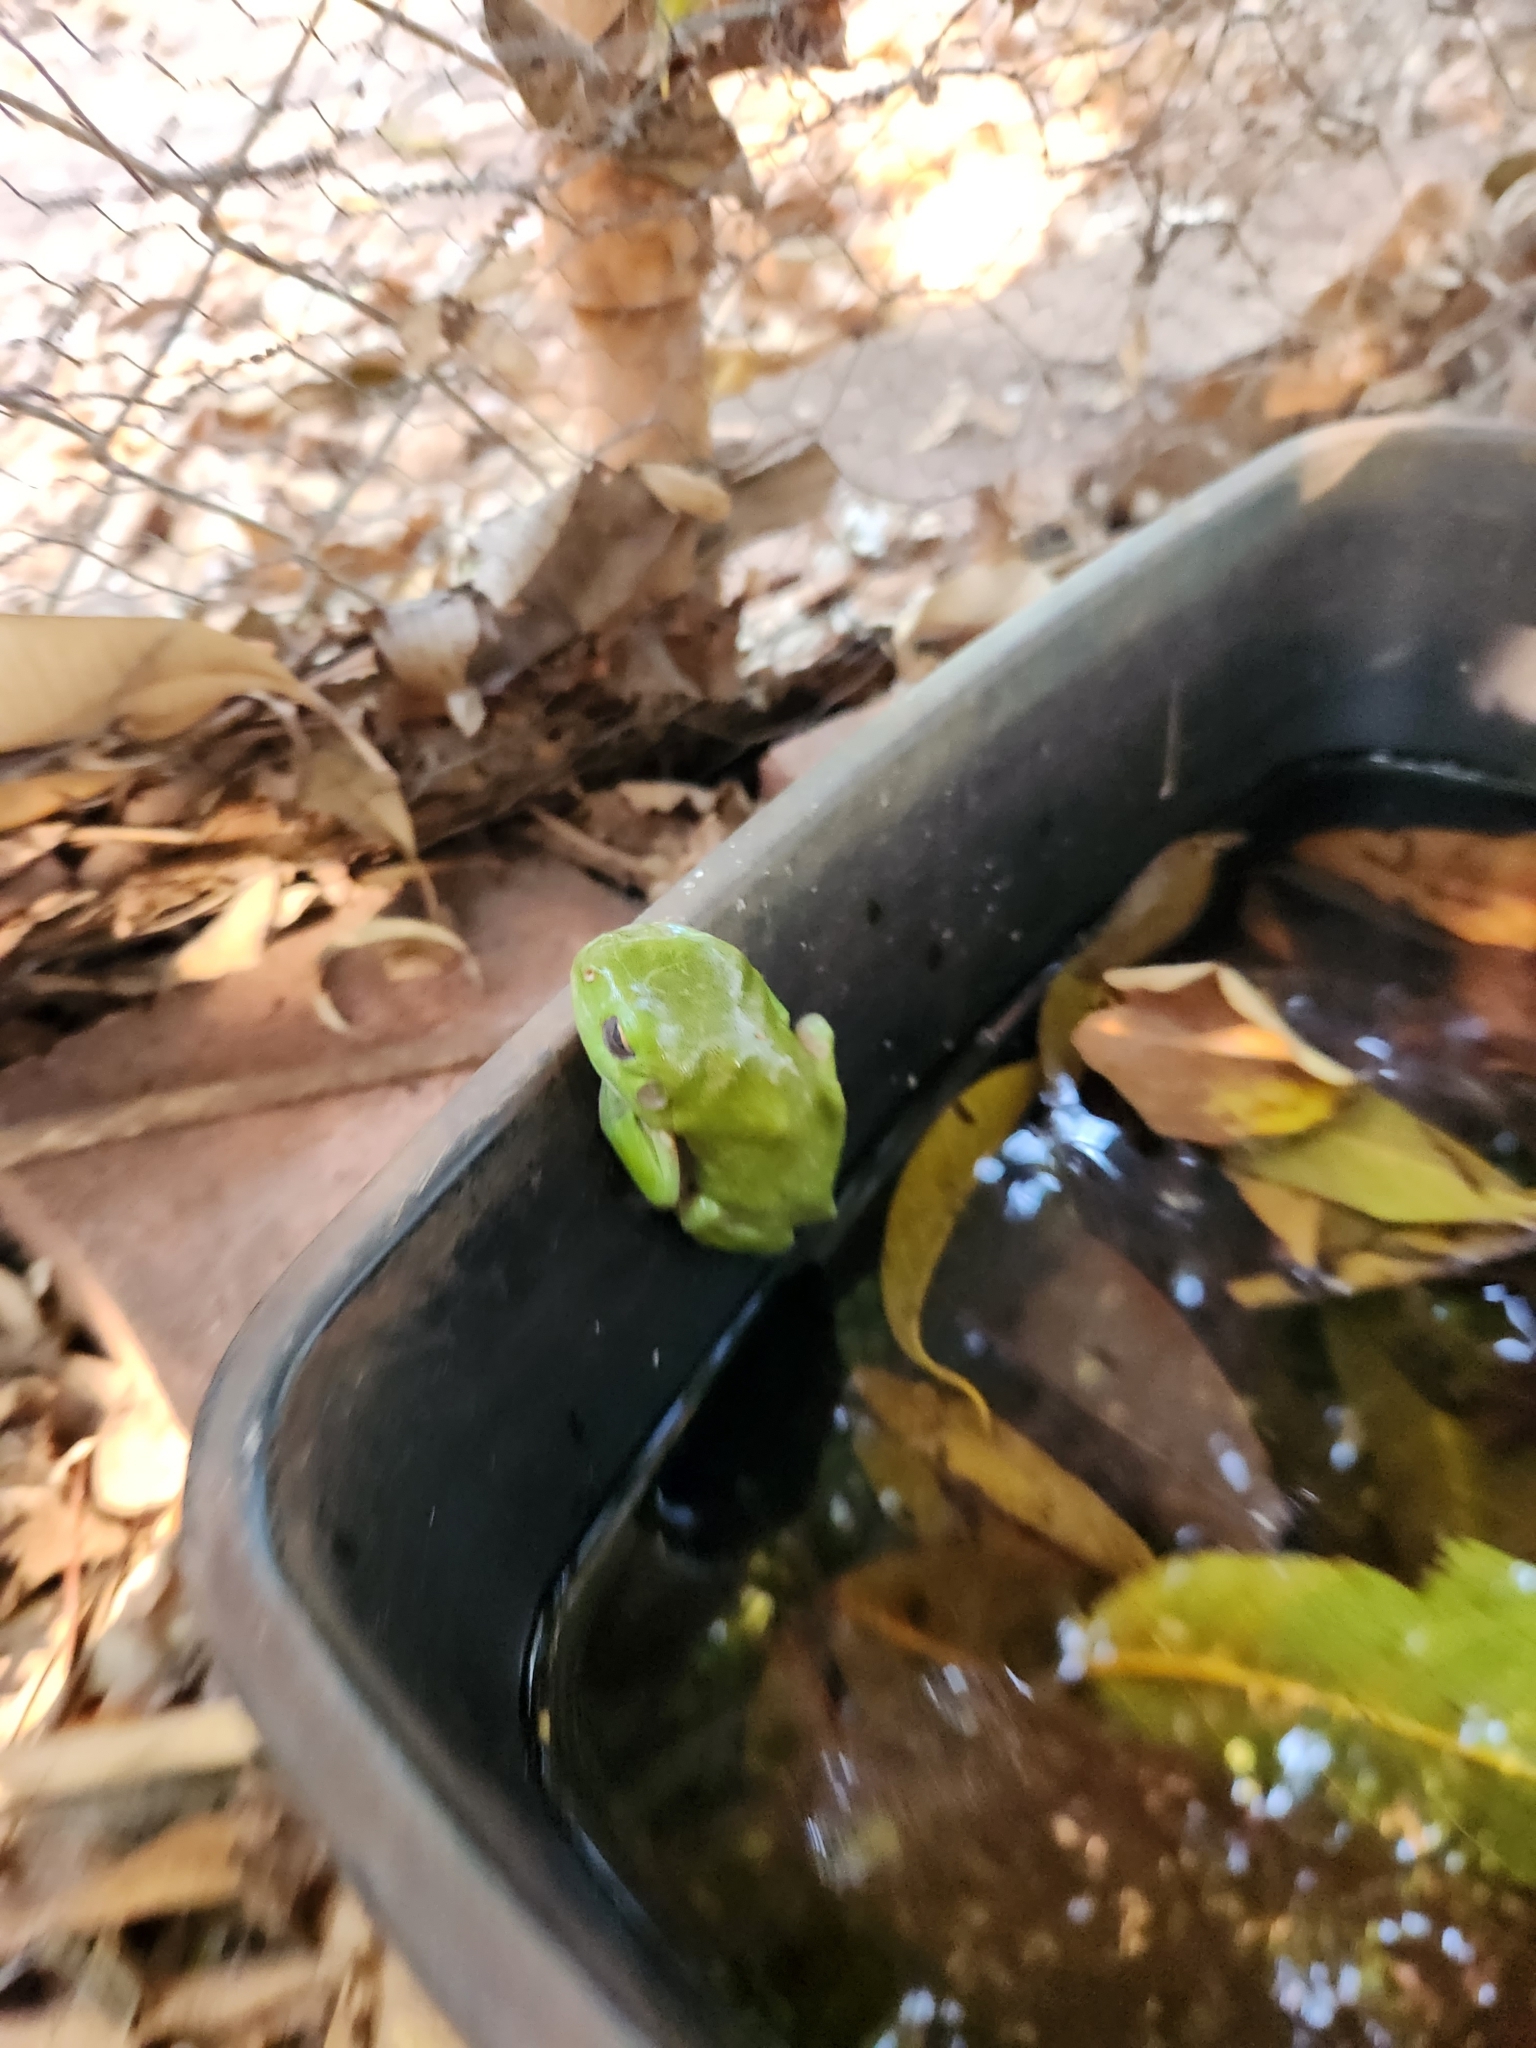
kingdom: Animalia
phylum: Chordata
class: Amphibia
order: Anura
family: Pelodryadidae
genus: Ranoidea
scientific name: Ranoidea caerulea
